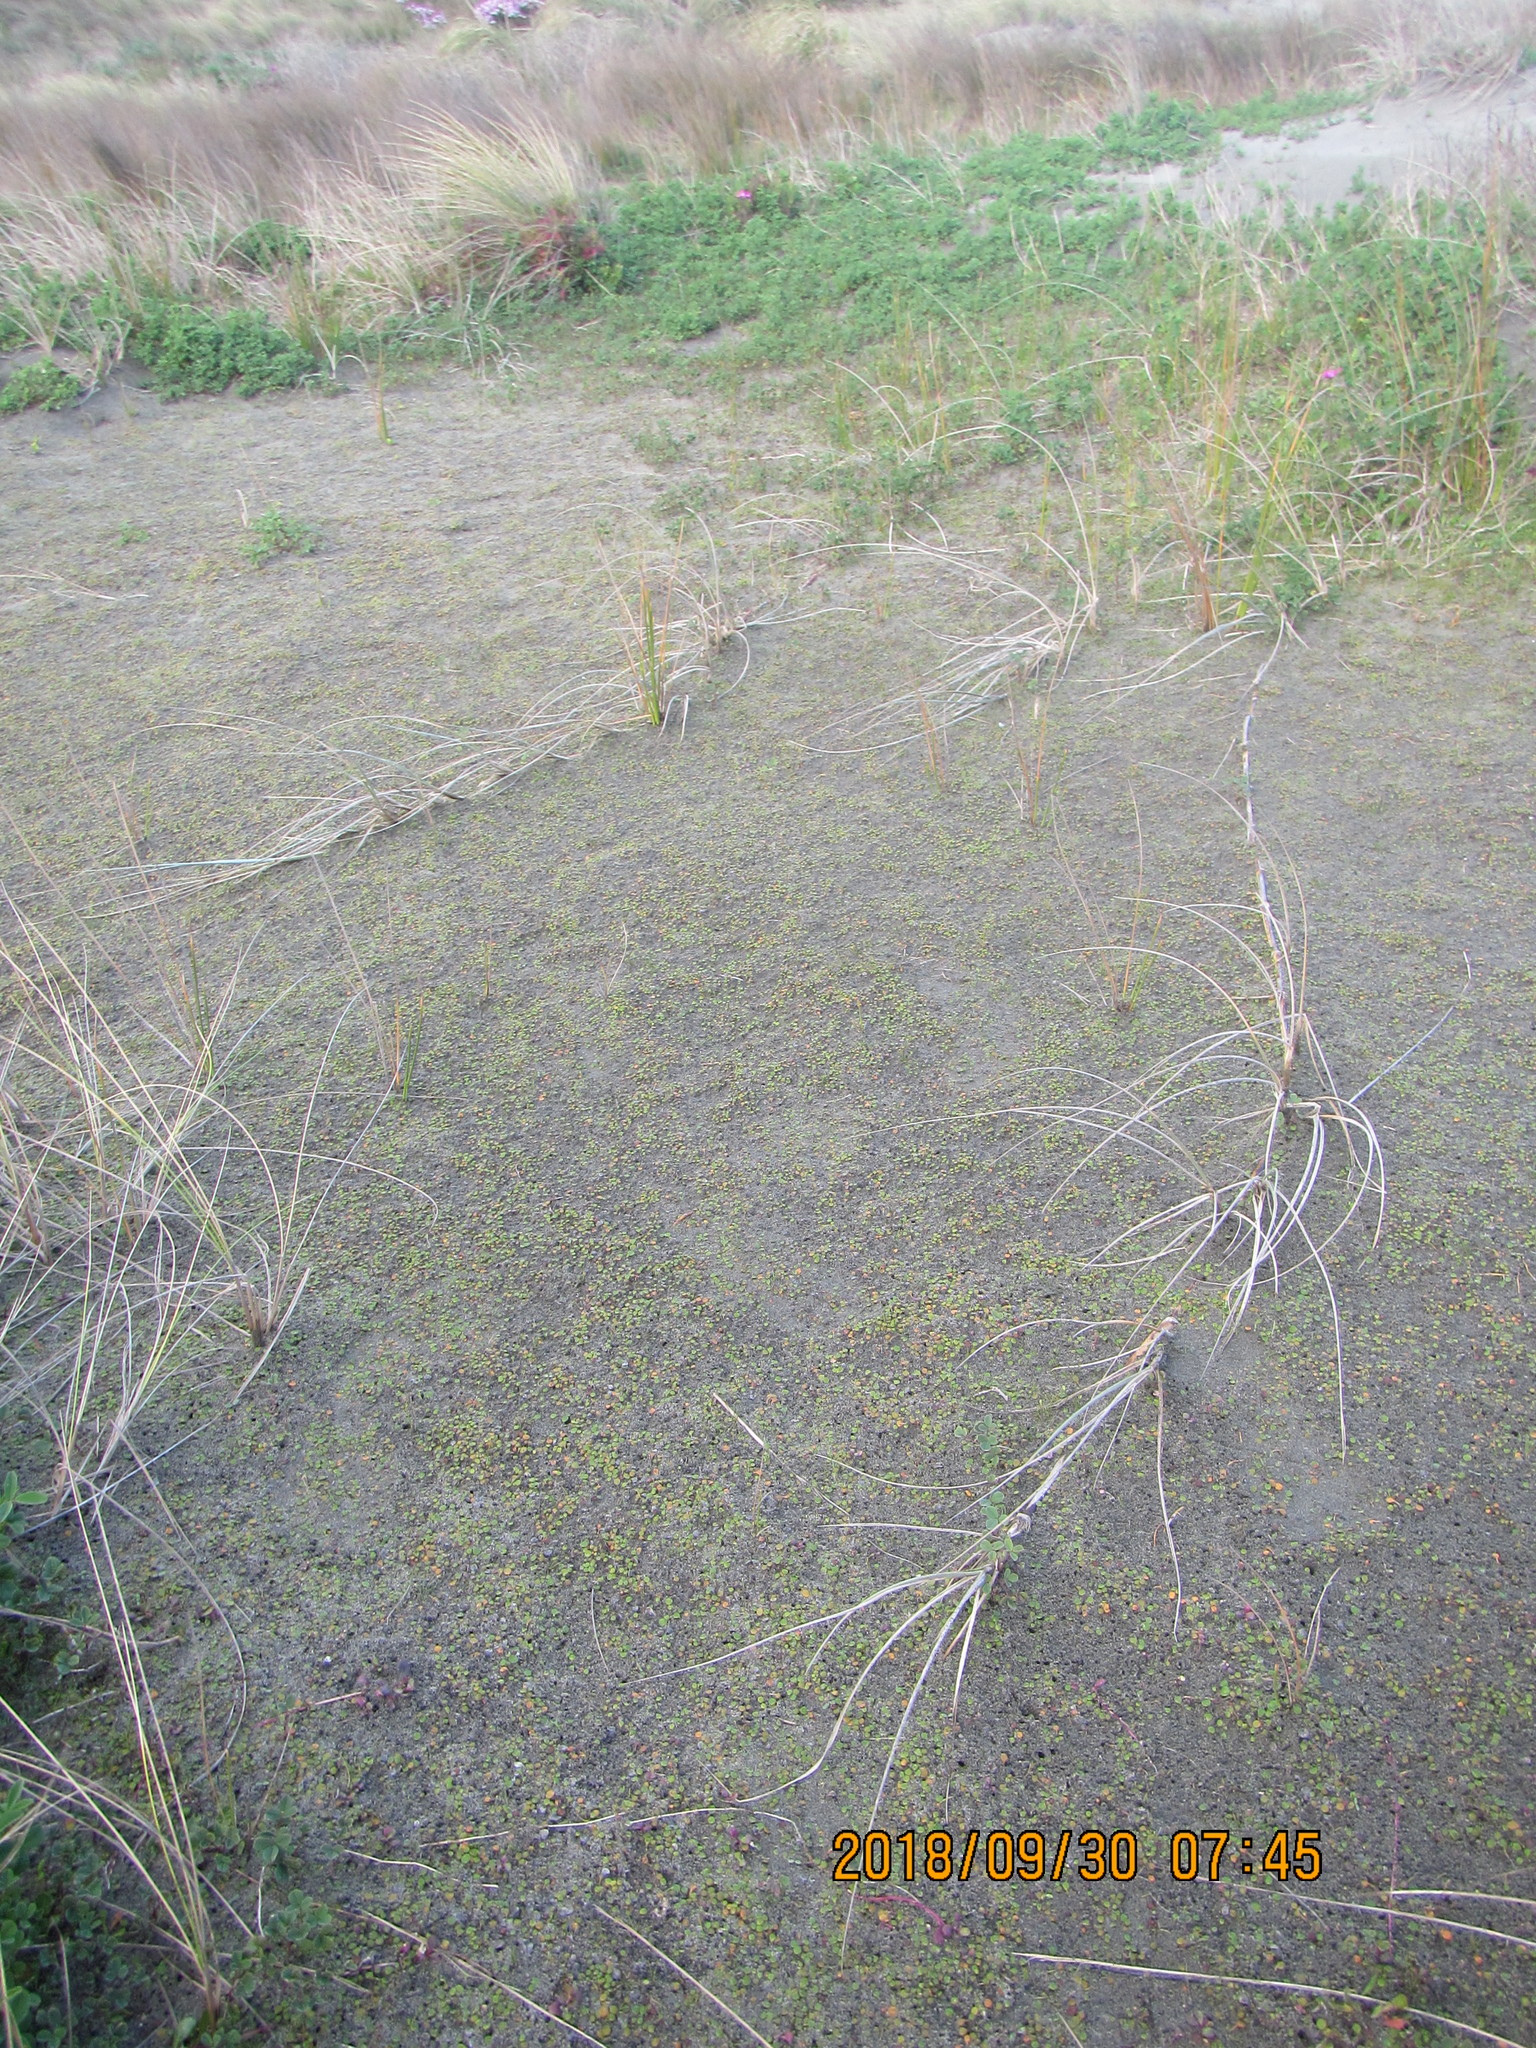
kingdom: Plantae
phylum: Tracheophyta
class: Liliopsida
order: Poales
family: Poaceae
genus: Spinifex
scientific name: Spinifex sericeus
